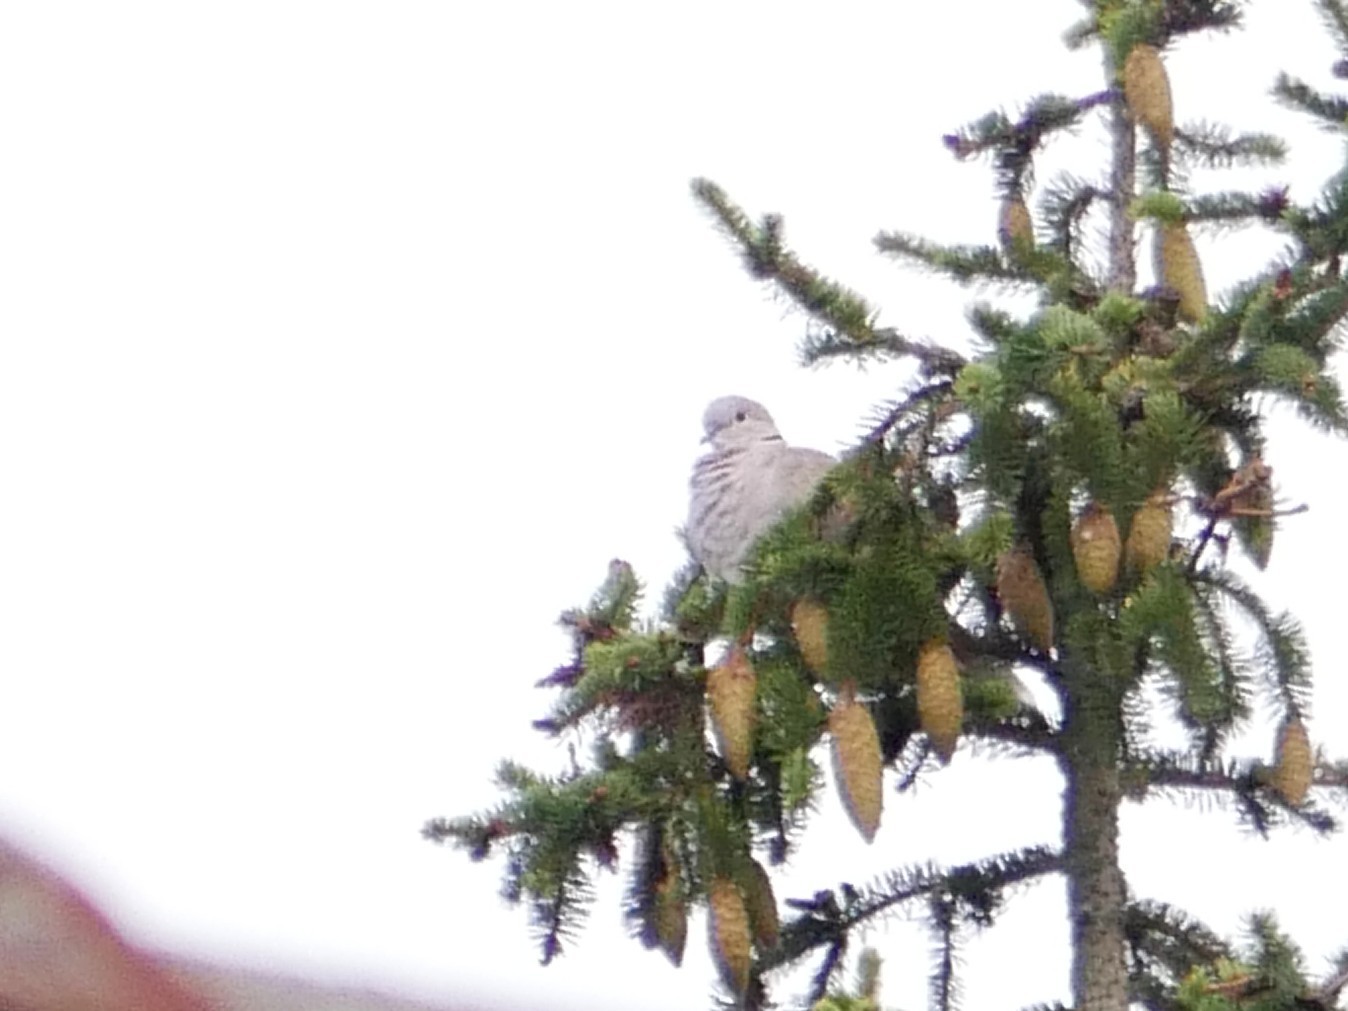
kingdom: Animalia
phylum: Chordata
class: Aves
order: Columbiformes
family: Columbidae
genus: Streptopelia
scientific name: Streptopelia decaocto
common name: Eurasian collared dove
